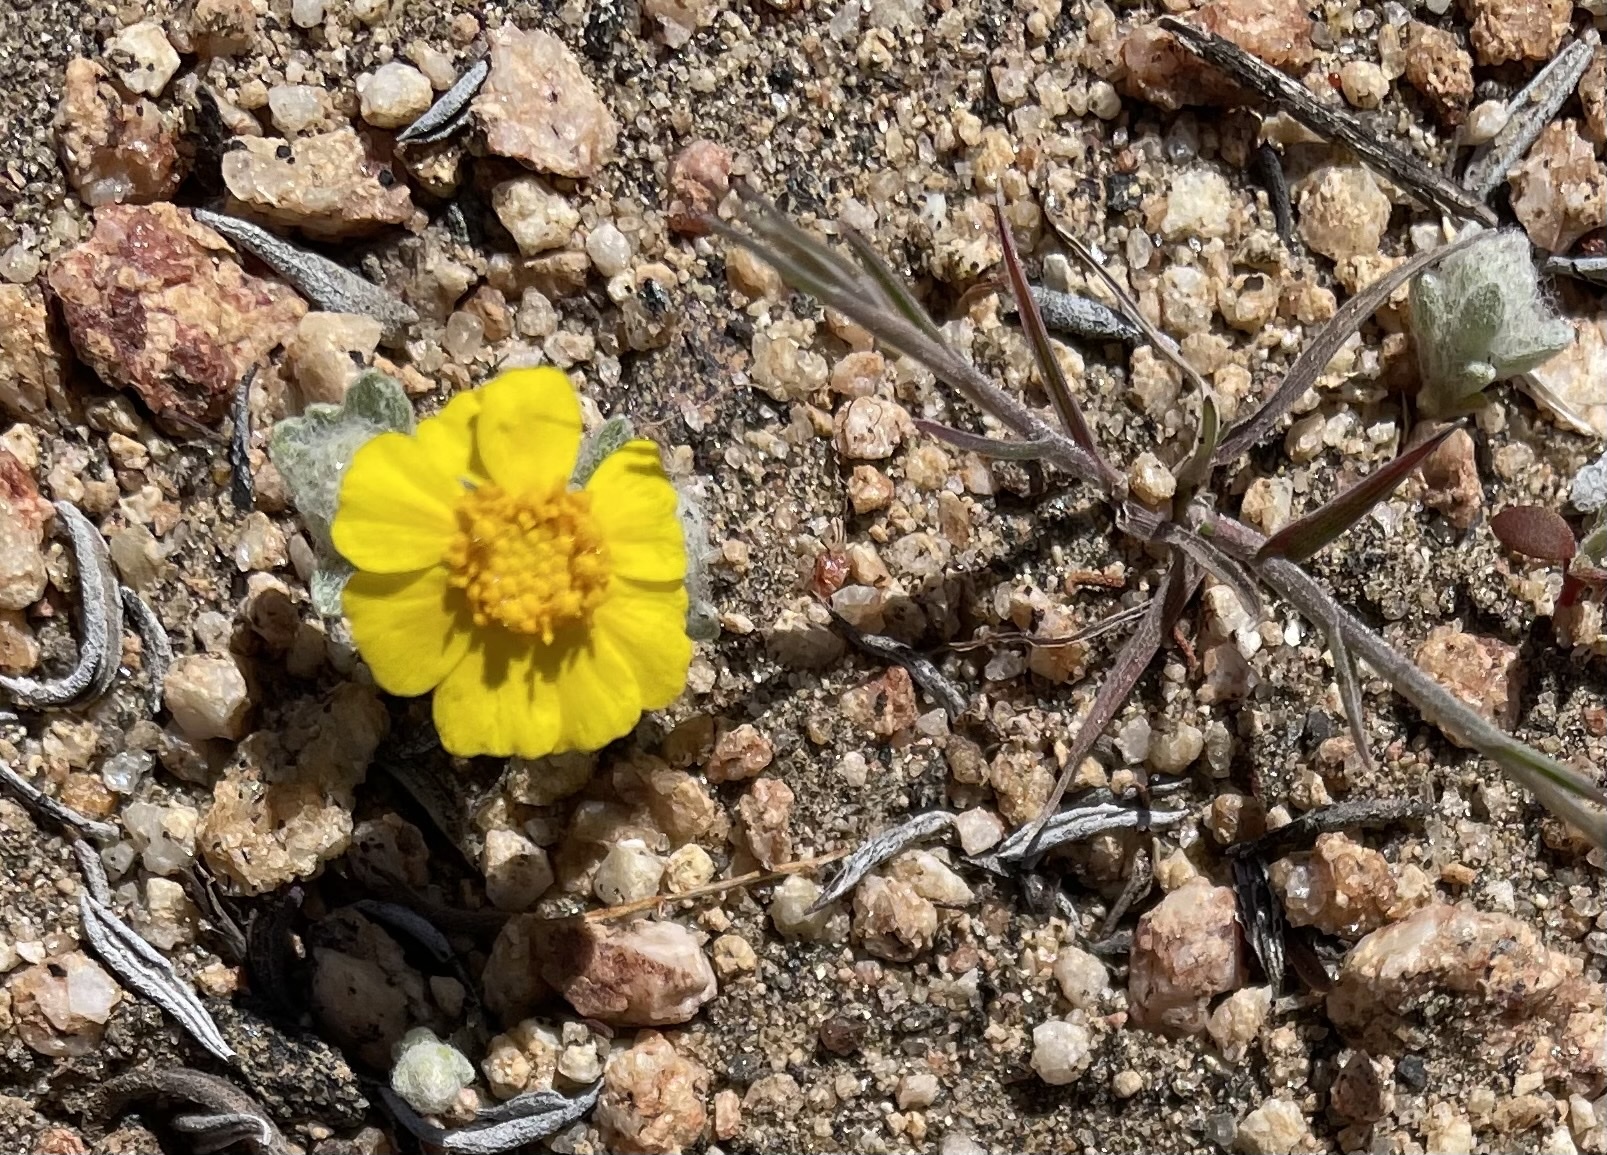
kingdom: Plantae
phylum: Tracheophyta
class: Magnoliopsida
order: Asterales
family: Asteraceae
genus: Eriophyllum
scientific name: Eriophyllum wallacei
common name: Wallace's woolly daisy
